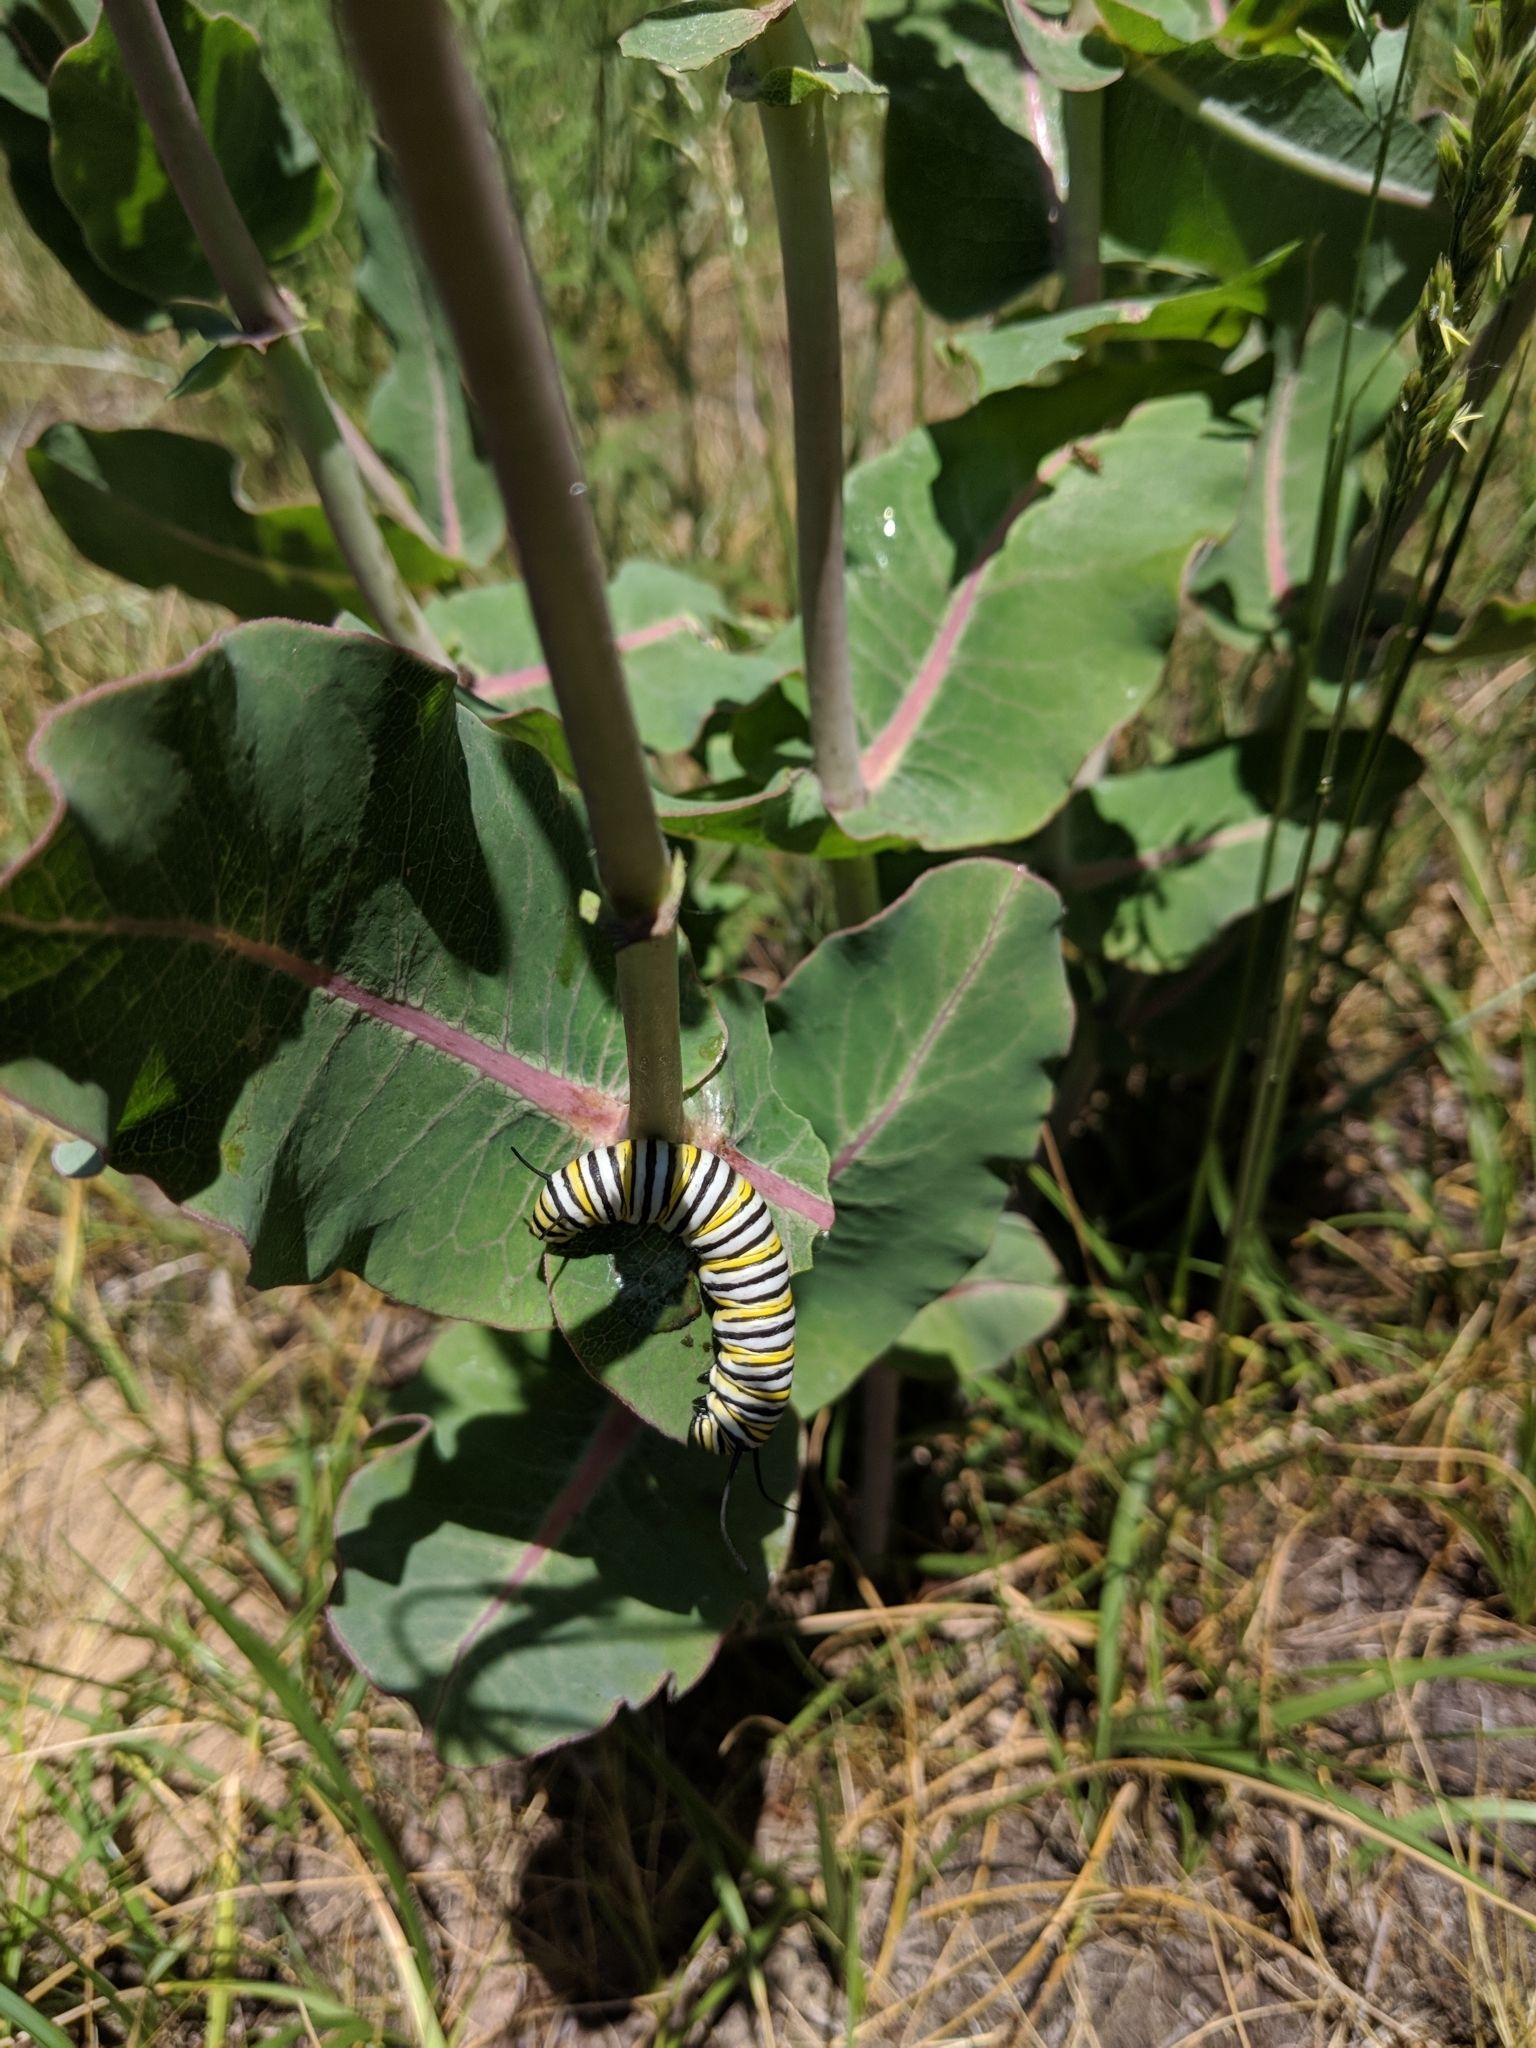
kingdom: Animalia
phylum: Arthropoda
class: Insecta
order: Lepidoptera
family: Nymphalidae
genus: Danaus
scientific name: Danaus plexippus
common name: Monarch
